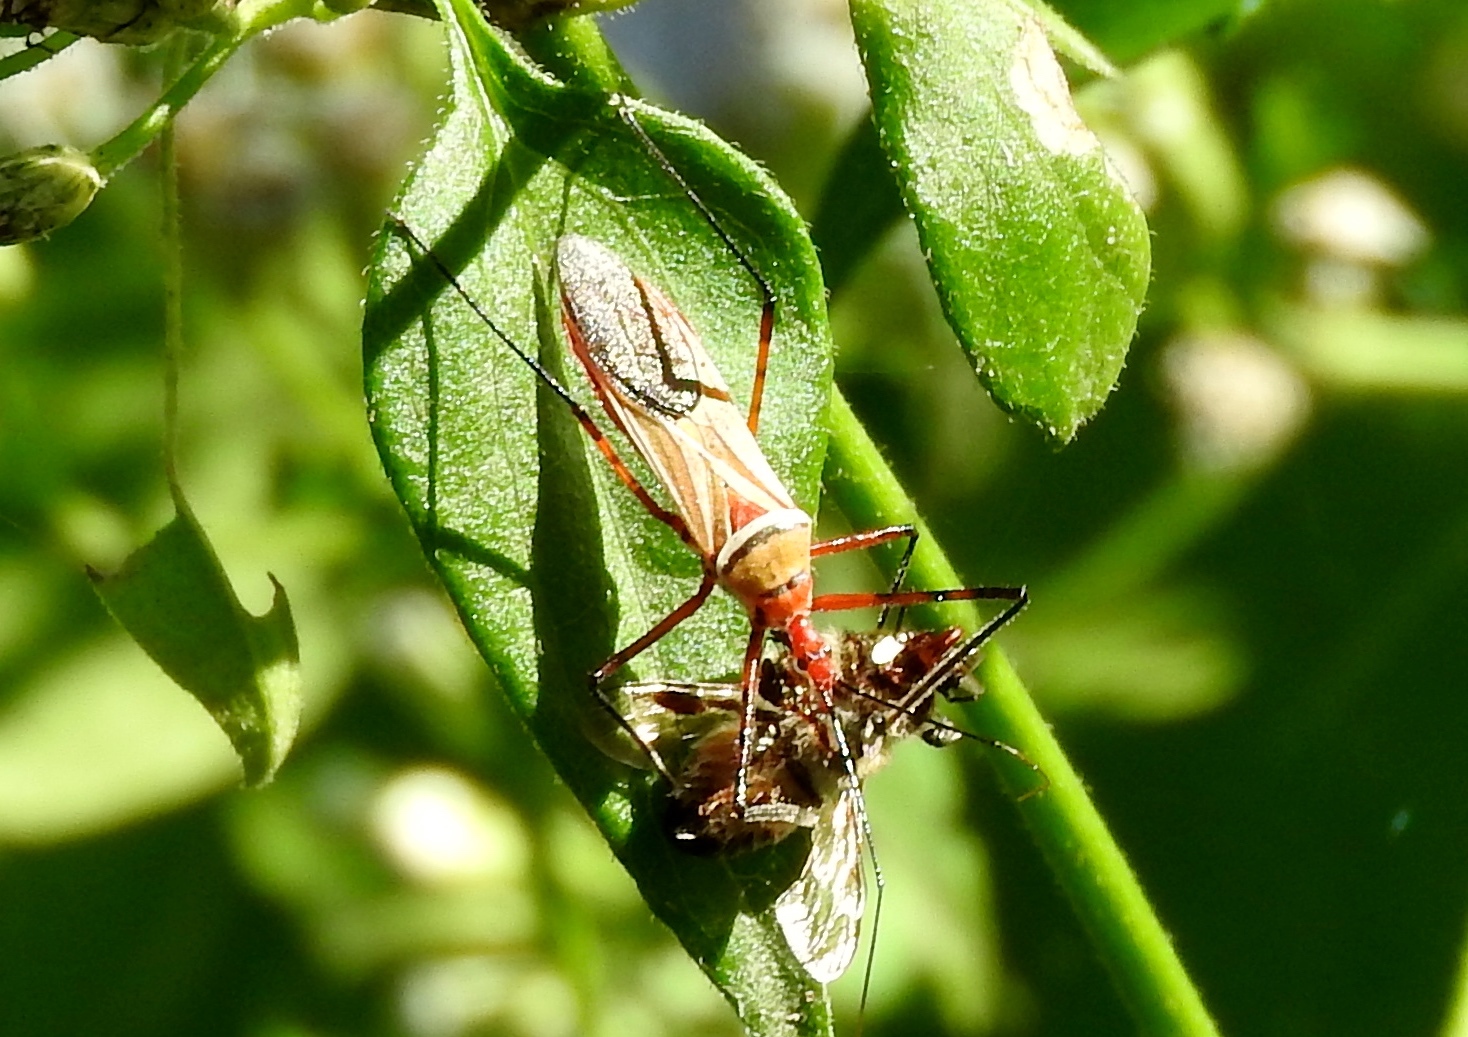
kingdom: Animalia
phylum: Arthropoda
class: Insecta
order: Hemiptera
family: Reduviidae
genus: Zelus
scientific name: Zelus grassans
